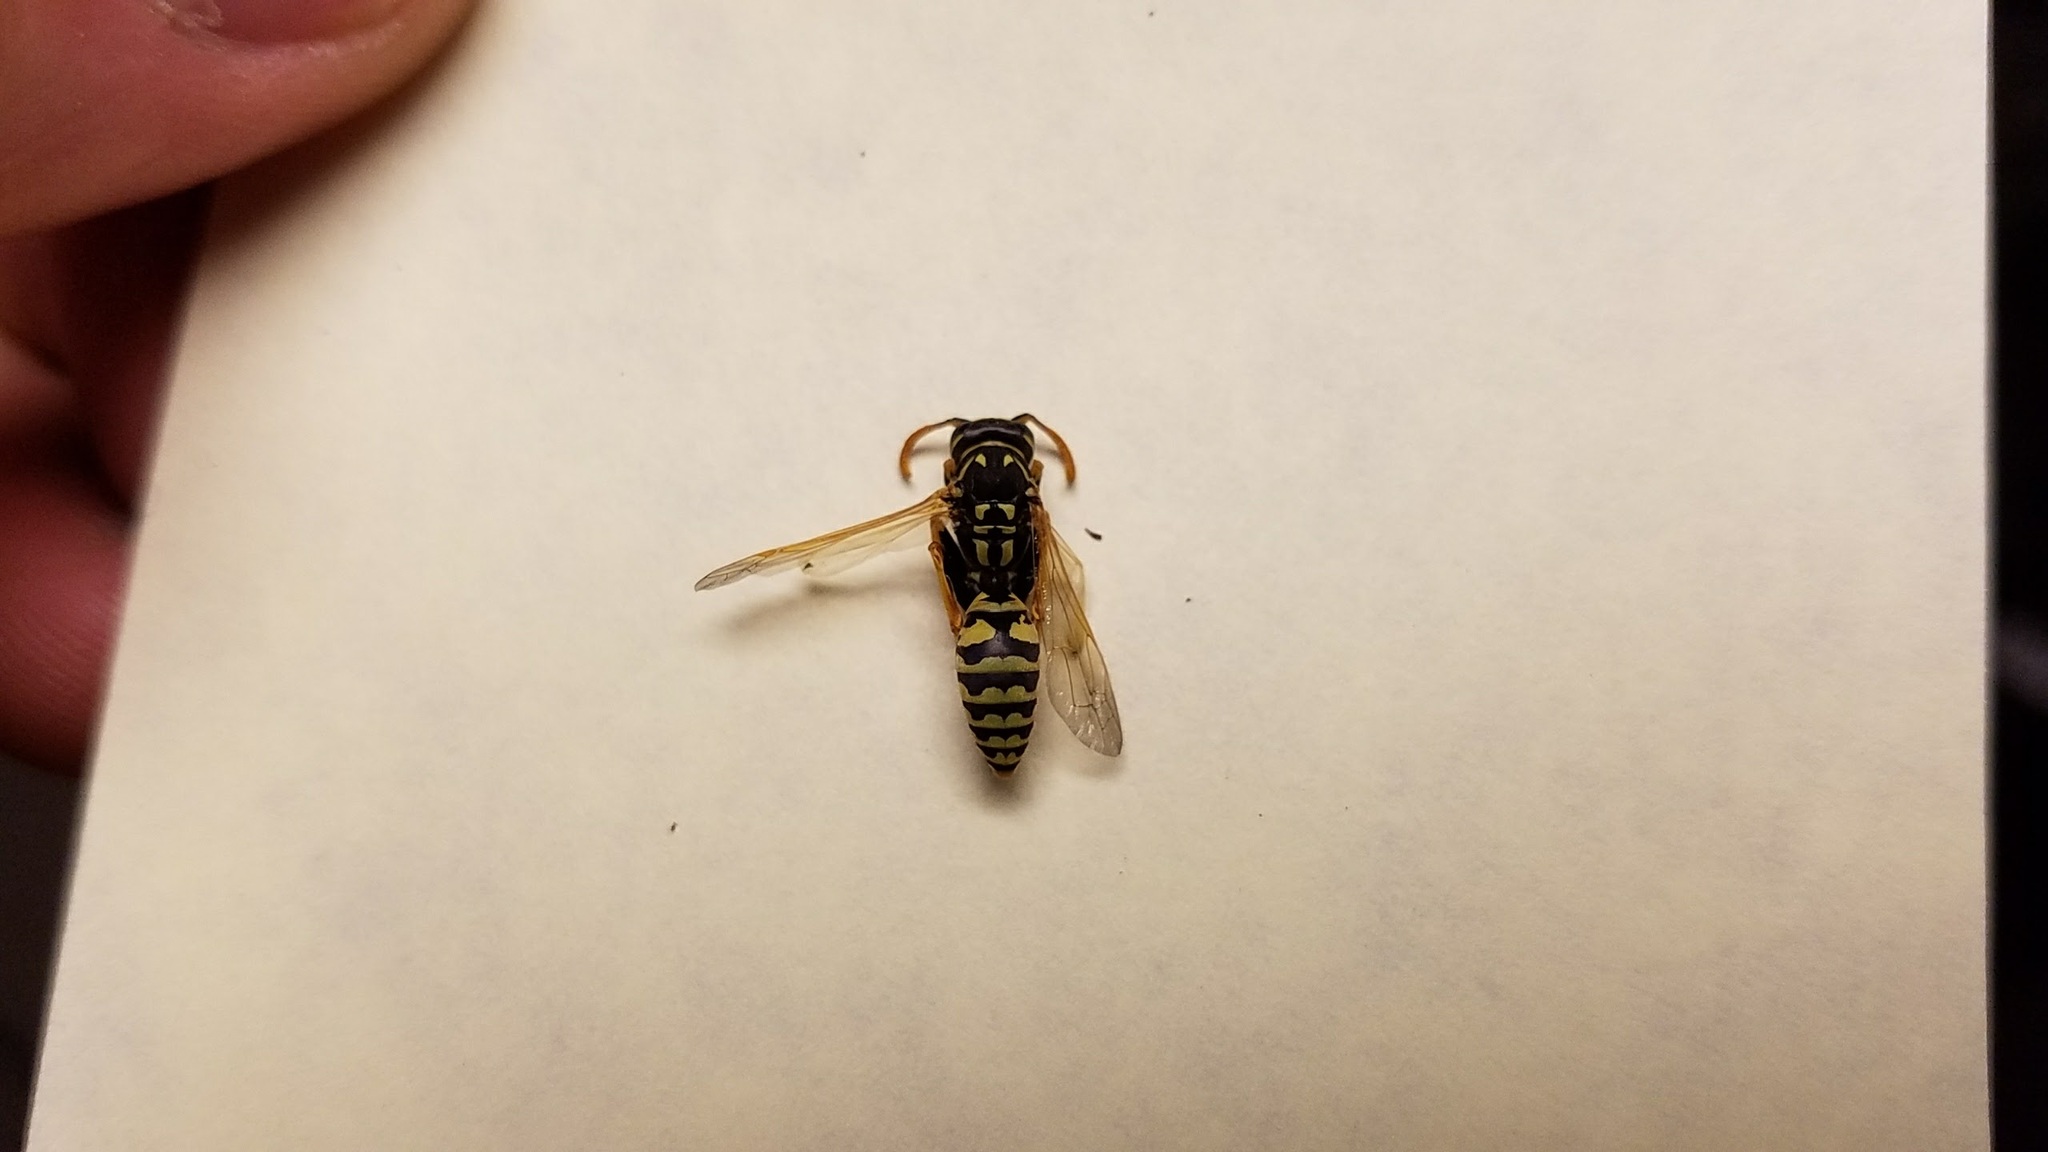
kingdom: Animalia
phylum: Arthropoda
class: Insecta
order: Hymenoptera
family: Eumenidae
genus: Polistes
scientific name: Polistes dominula
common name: Paper wasp
